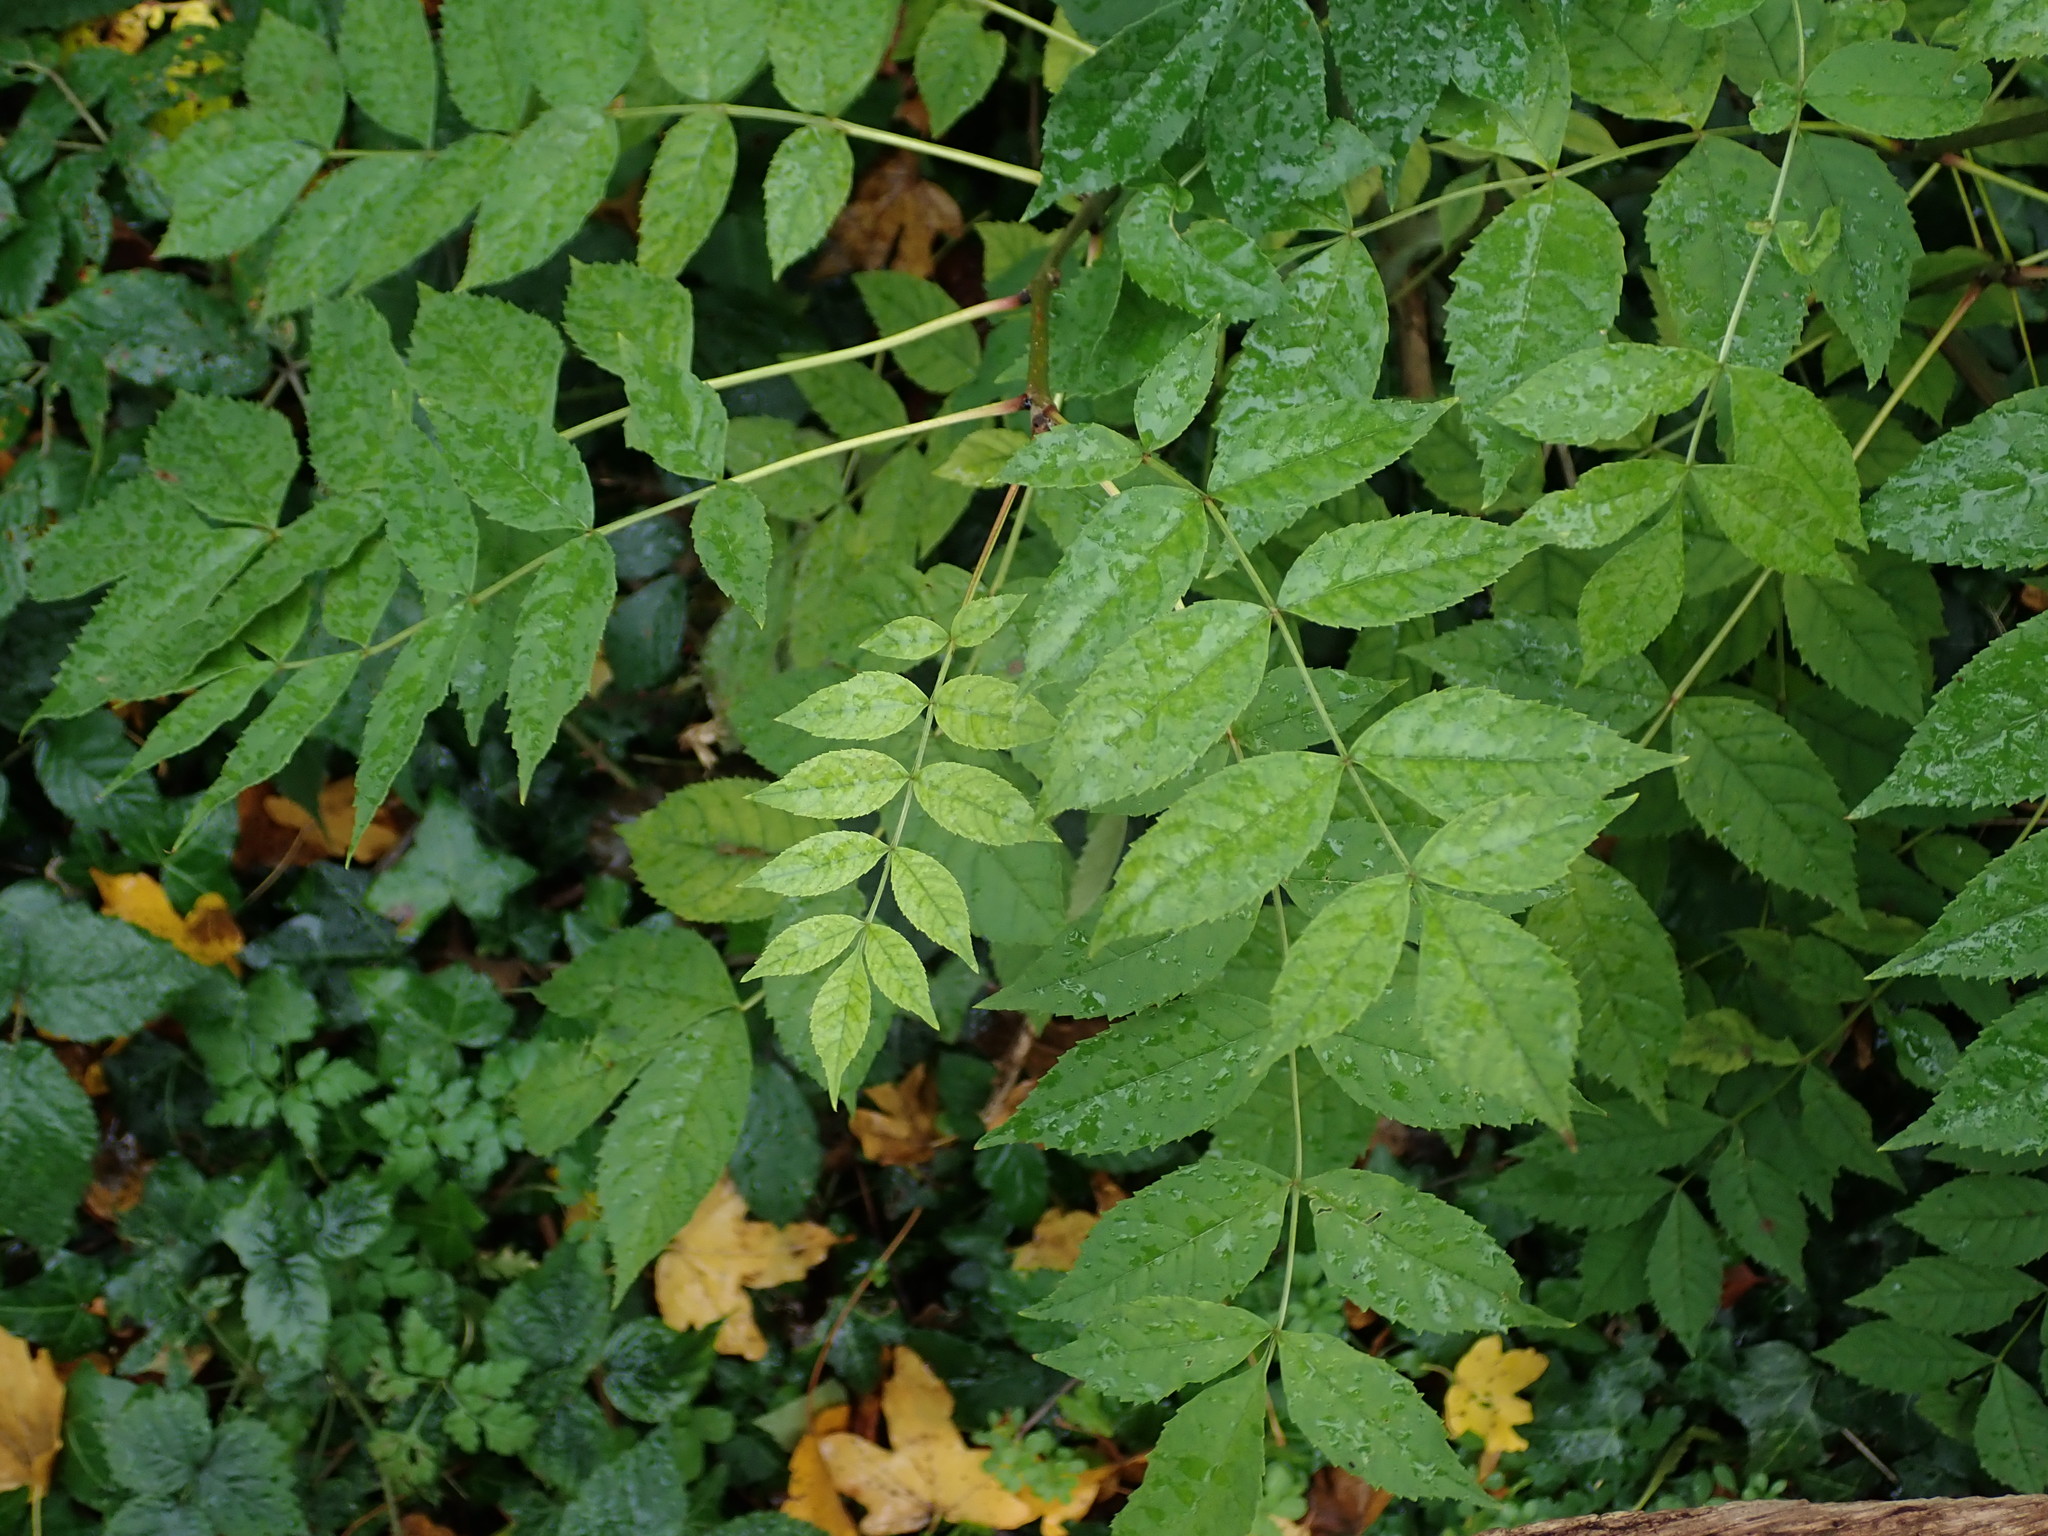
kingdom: Plantae
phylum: Tracheophyta
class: Magnoliopsida
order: Lamiales
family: Oleaceae
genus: Fraxinus
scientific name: Fraxinus excelsior
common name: European ash
